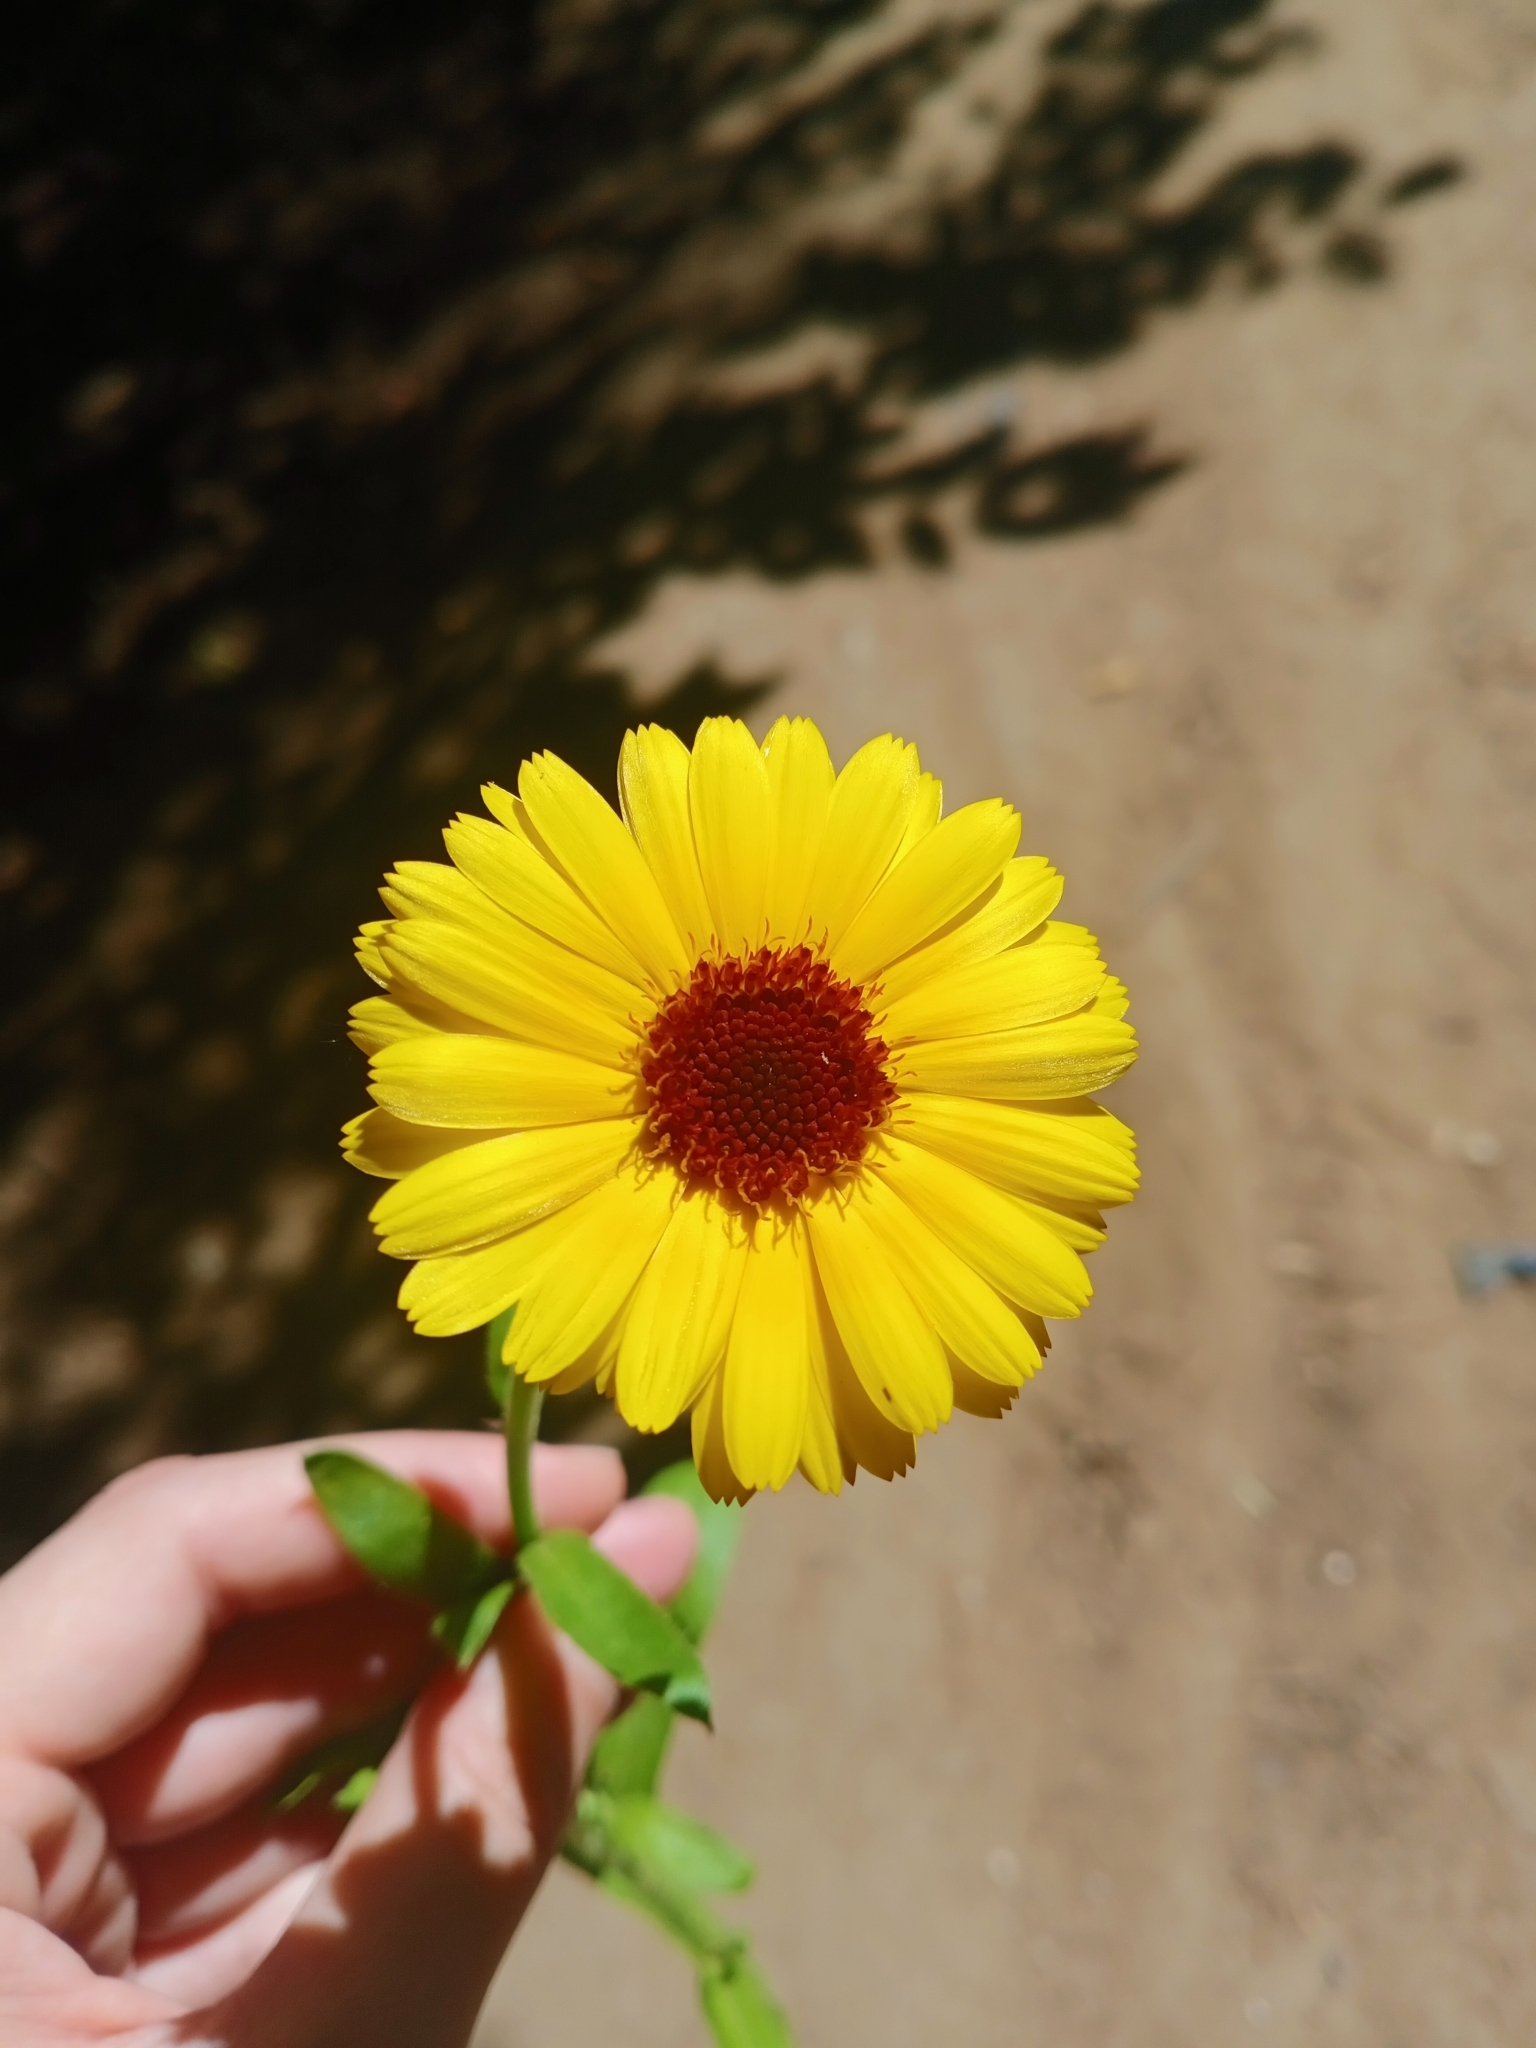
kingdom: Plantae
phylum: Tracheophyta
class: Magnoliopsida
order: Asterales
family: Asteraceae
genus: Calendula
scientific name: Calendula officinalis
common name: Pot marigold
